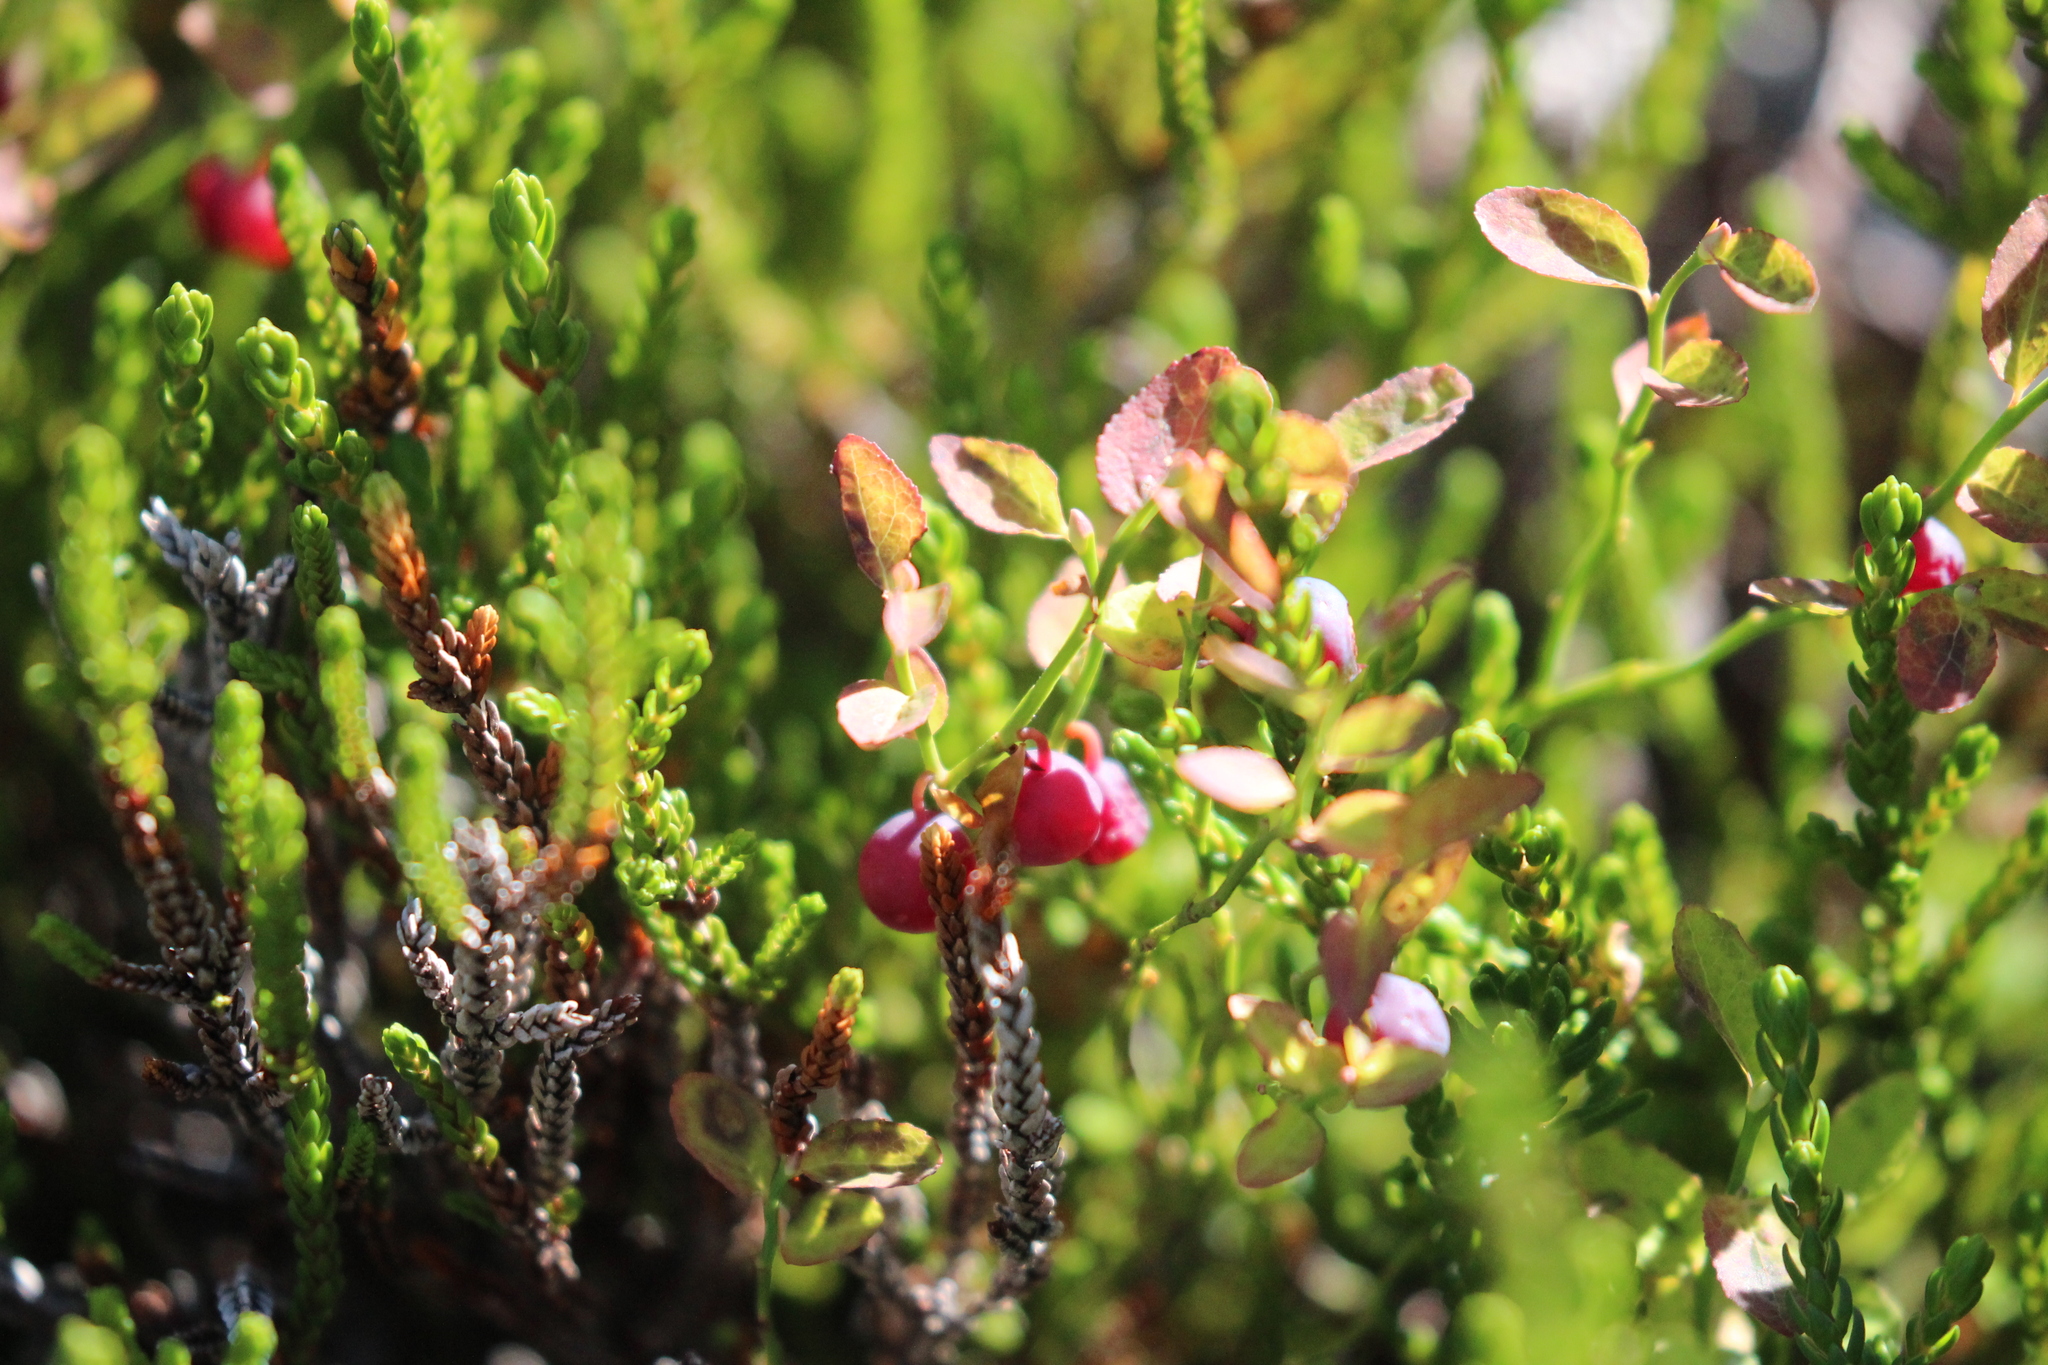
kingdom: Plantae
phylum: Tracheophyta
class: Magnoliopsida
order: Ericales
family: Ericaceae
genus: Cassiope
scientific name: Cassiope mertensiana
